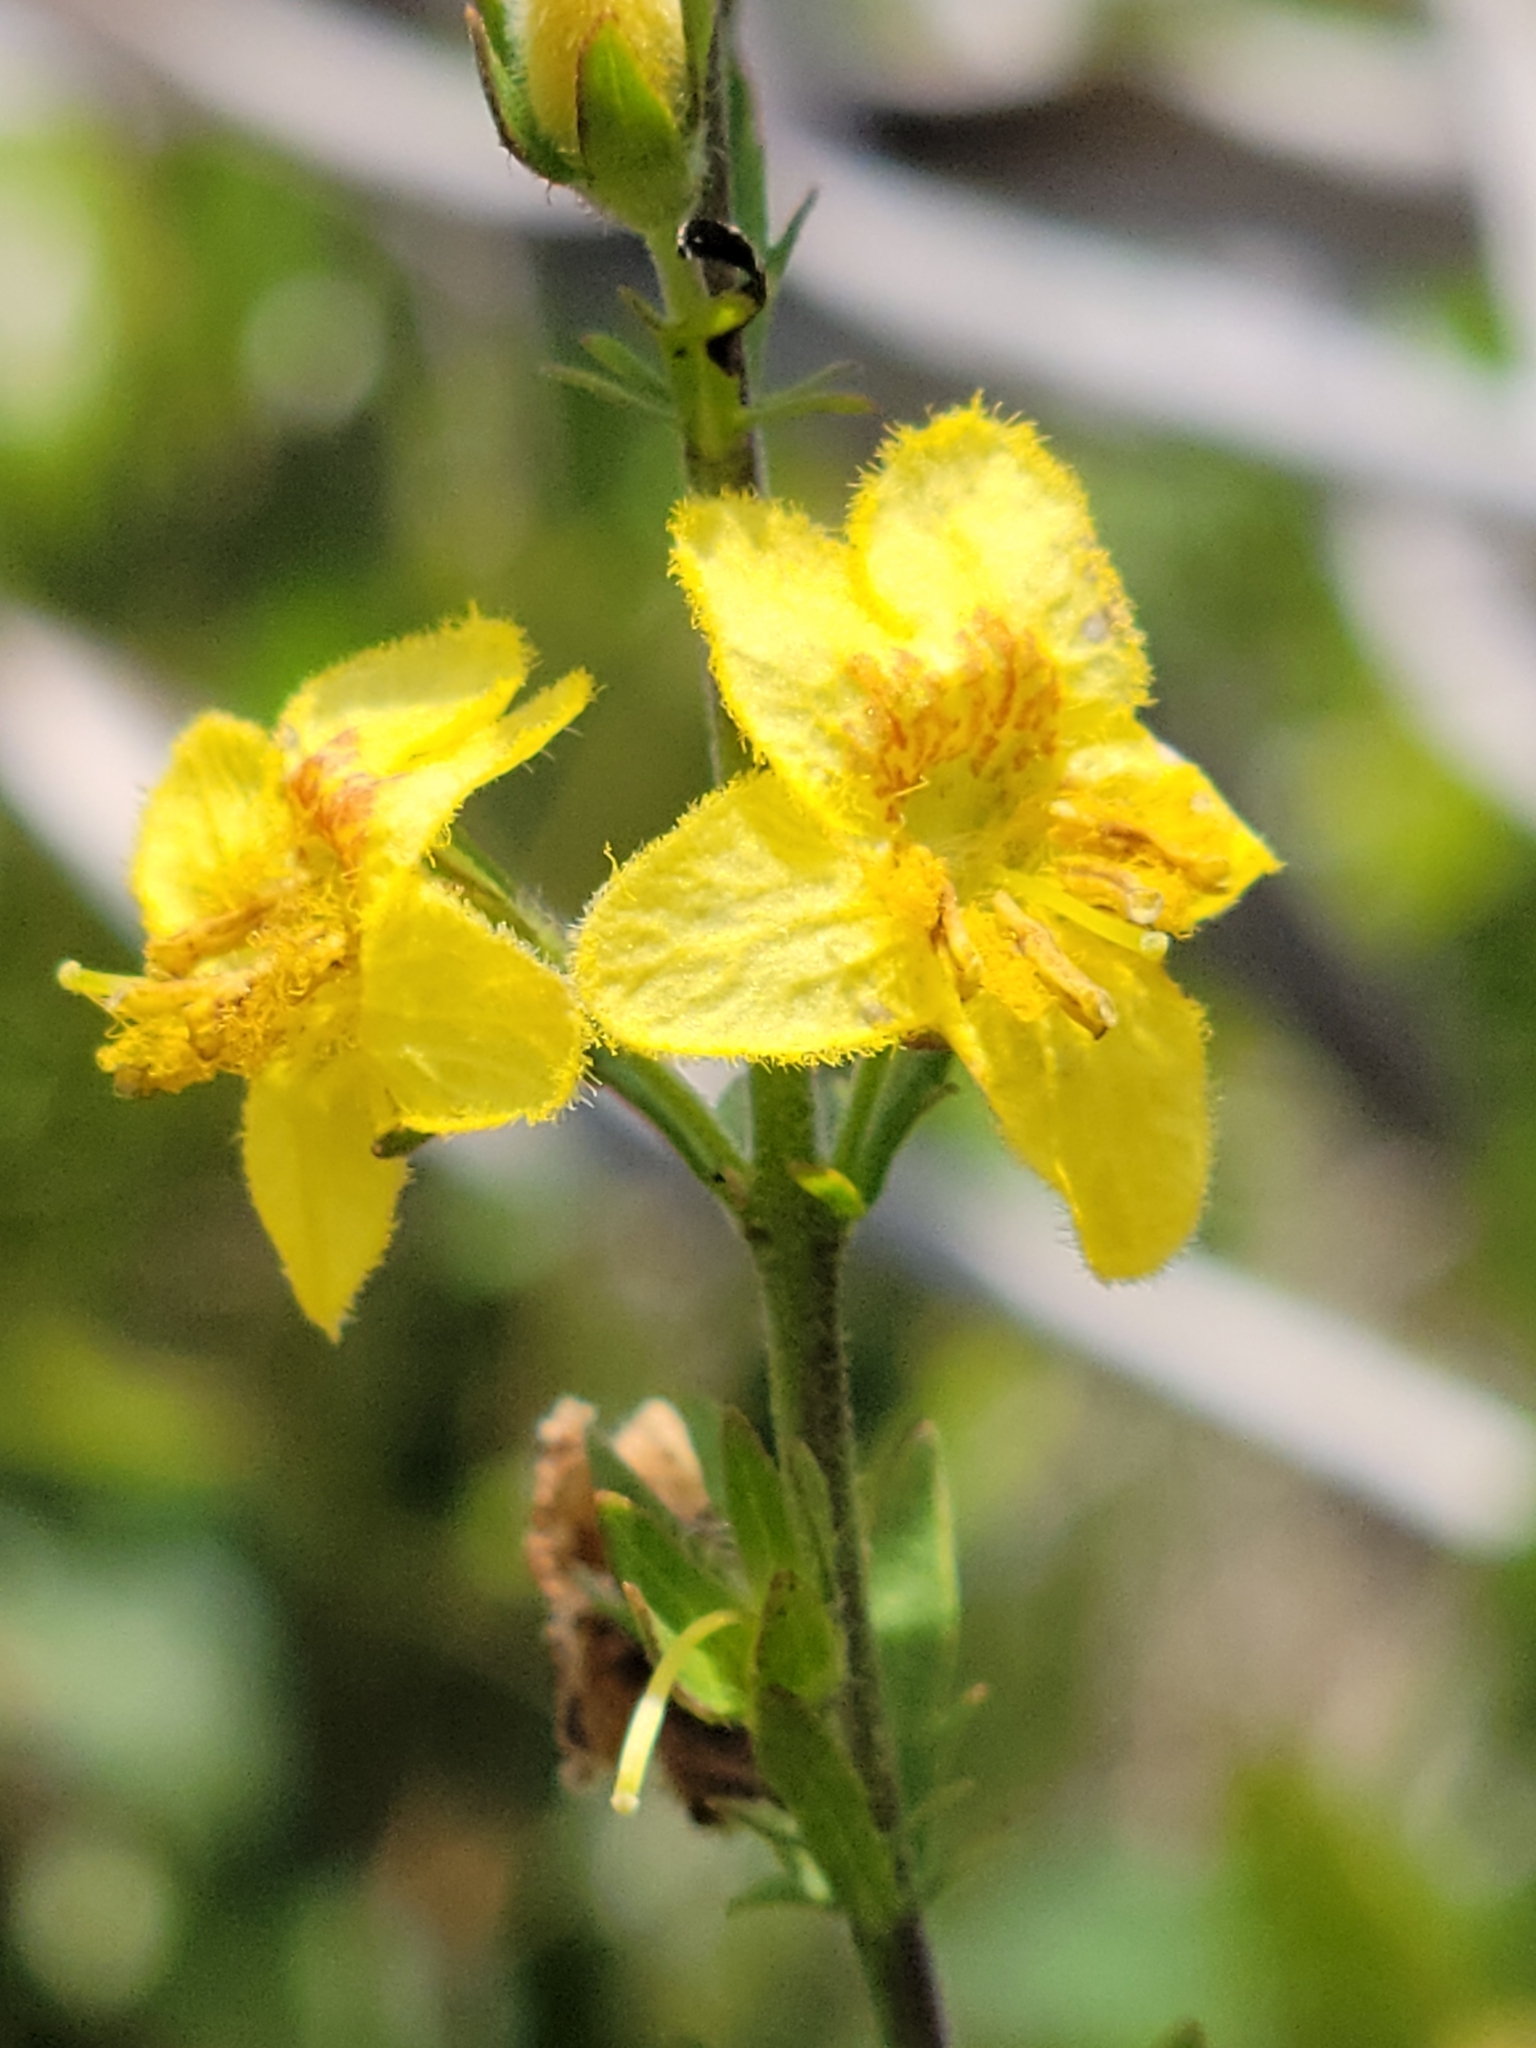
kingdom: Plantae
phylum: Tracheophyta
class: Magnoliopsida
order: Lamiales
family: Orobanchaceae
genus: Seymeria
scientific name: Seymeria pectinata
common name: Piedmont black-senna
